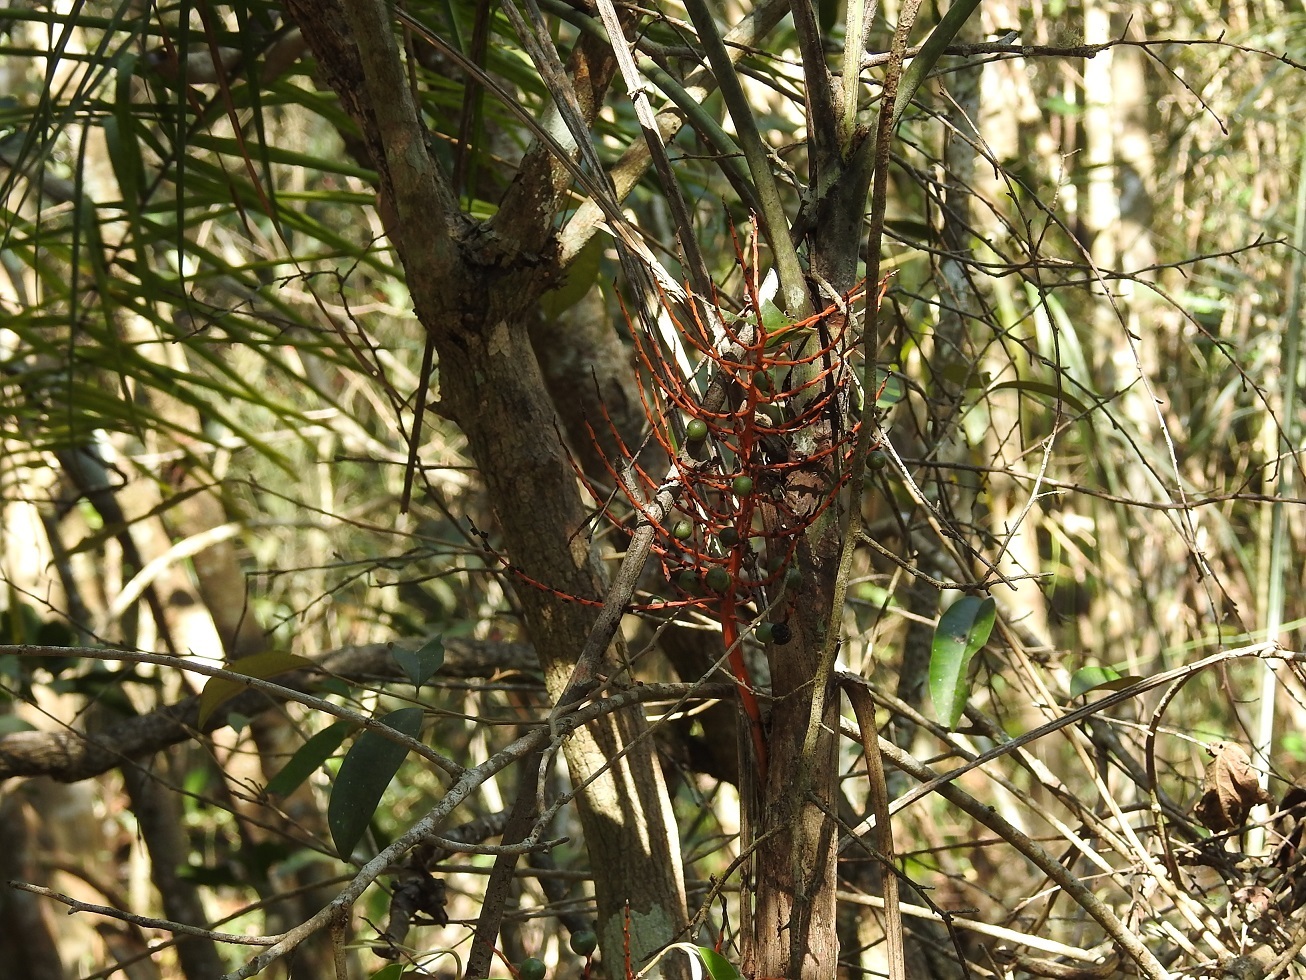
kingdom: Plantae
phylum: Tracheophyta
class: Liliopsida
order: Arecales
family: Arecaceae
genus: Chamaedorea
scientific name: Chamaedorea glaucifolia
